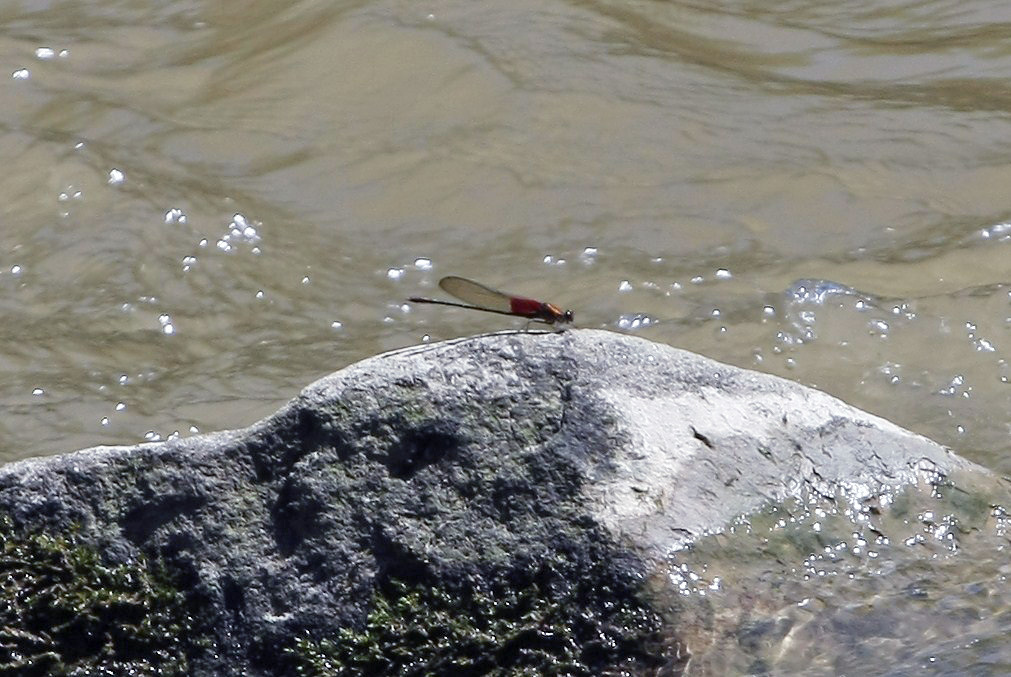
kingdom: Animalia
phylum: Arthropoda
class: Insecta
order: Odonata
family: Calopterygidae
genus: Hetaerina
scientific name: Hetaerina americana
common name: American rubyspot
